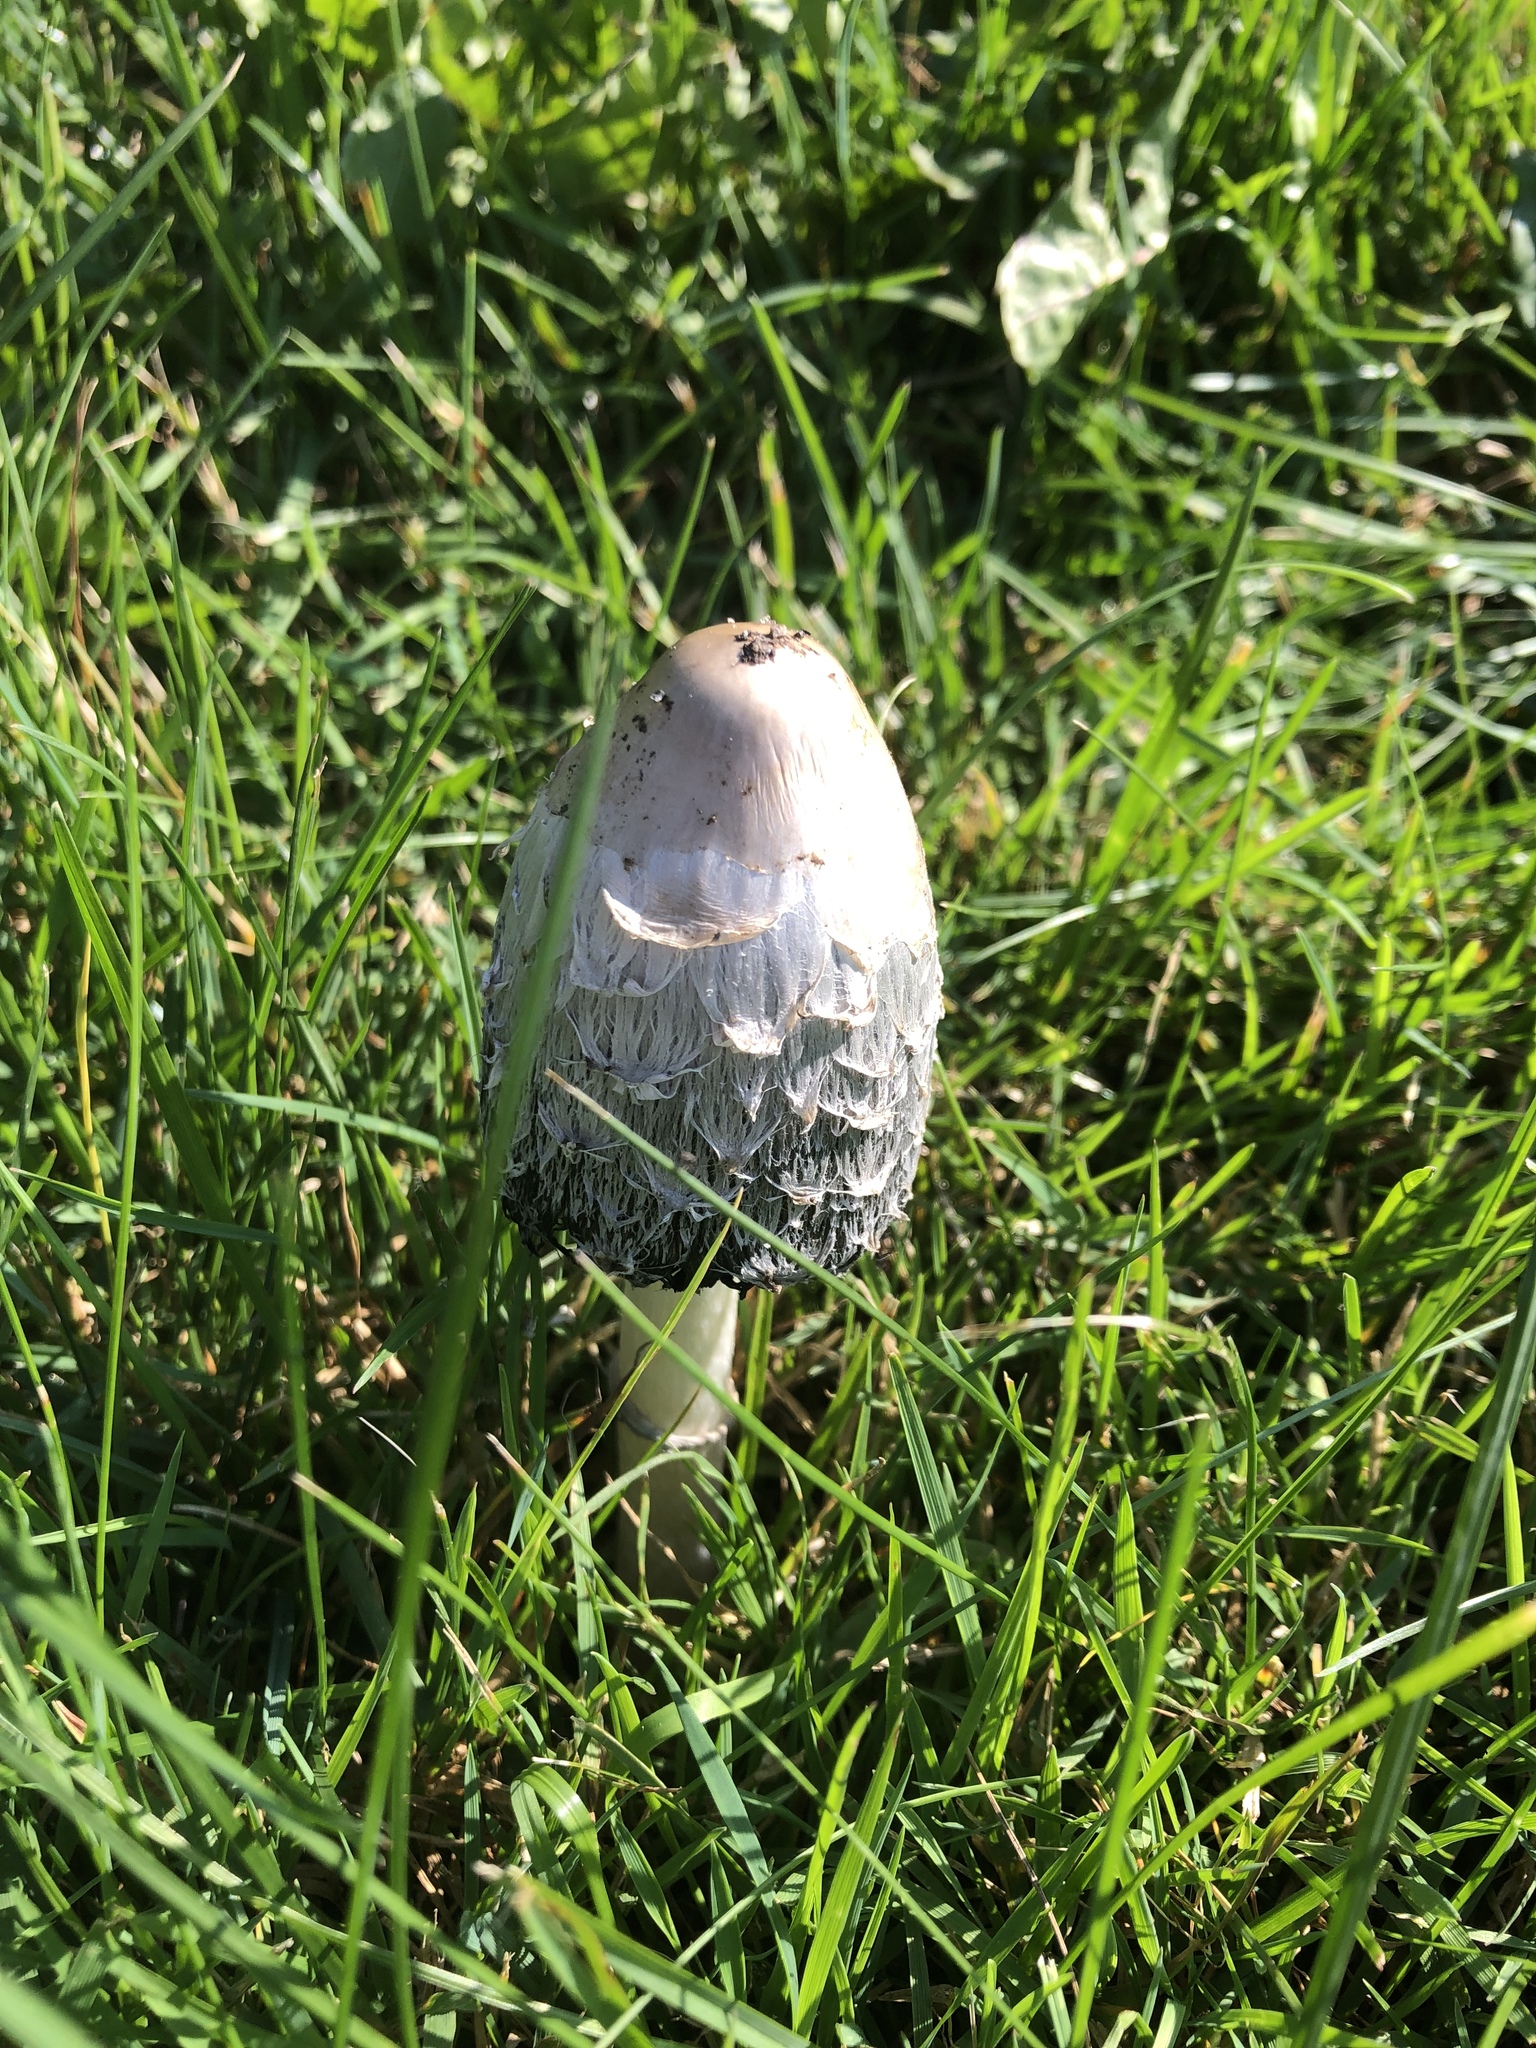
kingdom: Fungi
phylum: Basidiomycota
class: Agaricomycetes
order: Agaricales
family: Agaricaceae
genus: Coprinus
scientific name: Coprinus comatus
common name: Lawyer's wig
